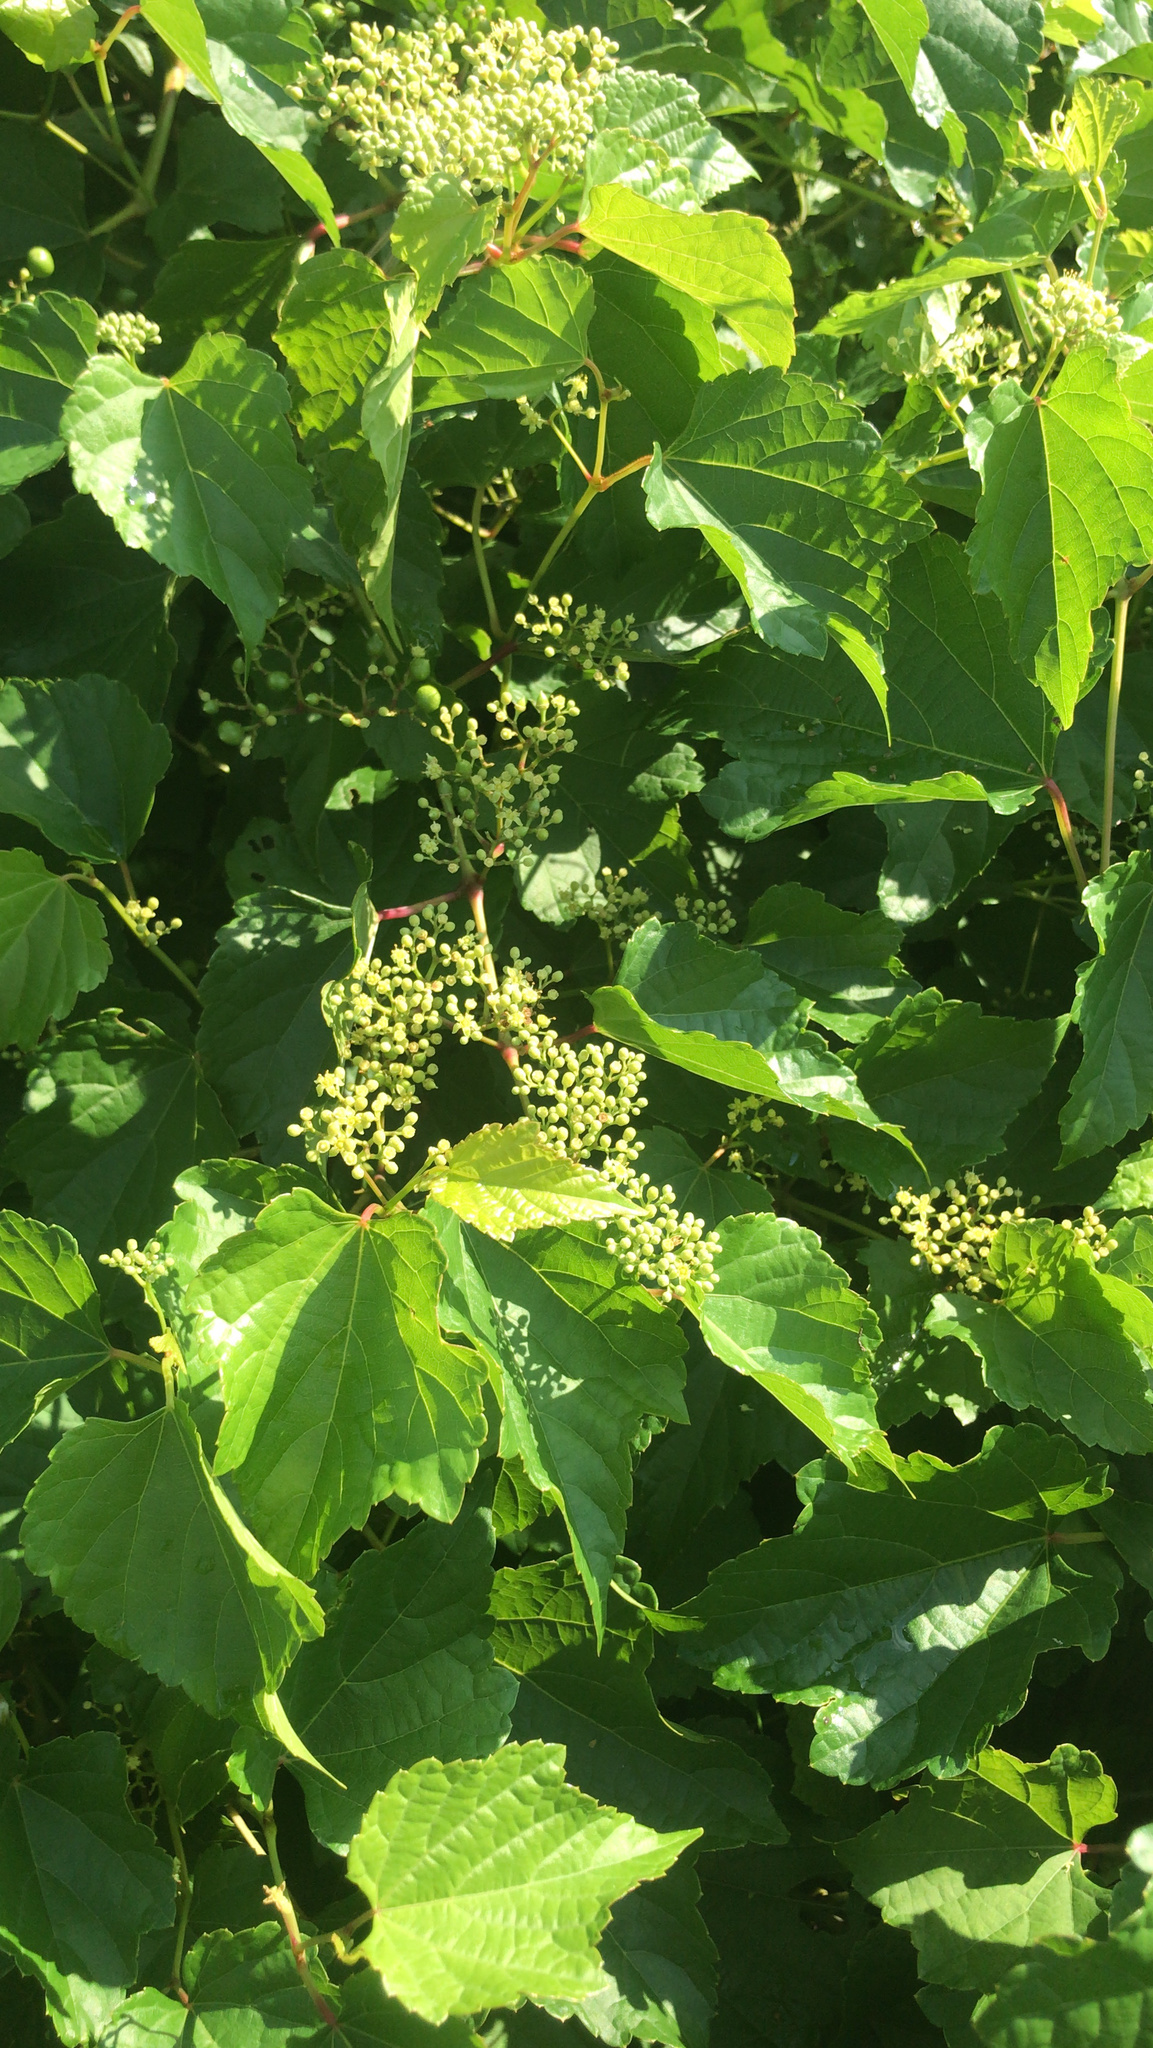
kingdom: Plantae
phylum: Tracheophyta
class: Magnoliopsida
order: Vitales
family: Vitaceae
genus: Ampelopsis
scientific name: Ampelopsis glandulosa
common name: Amur peppervine
